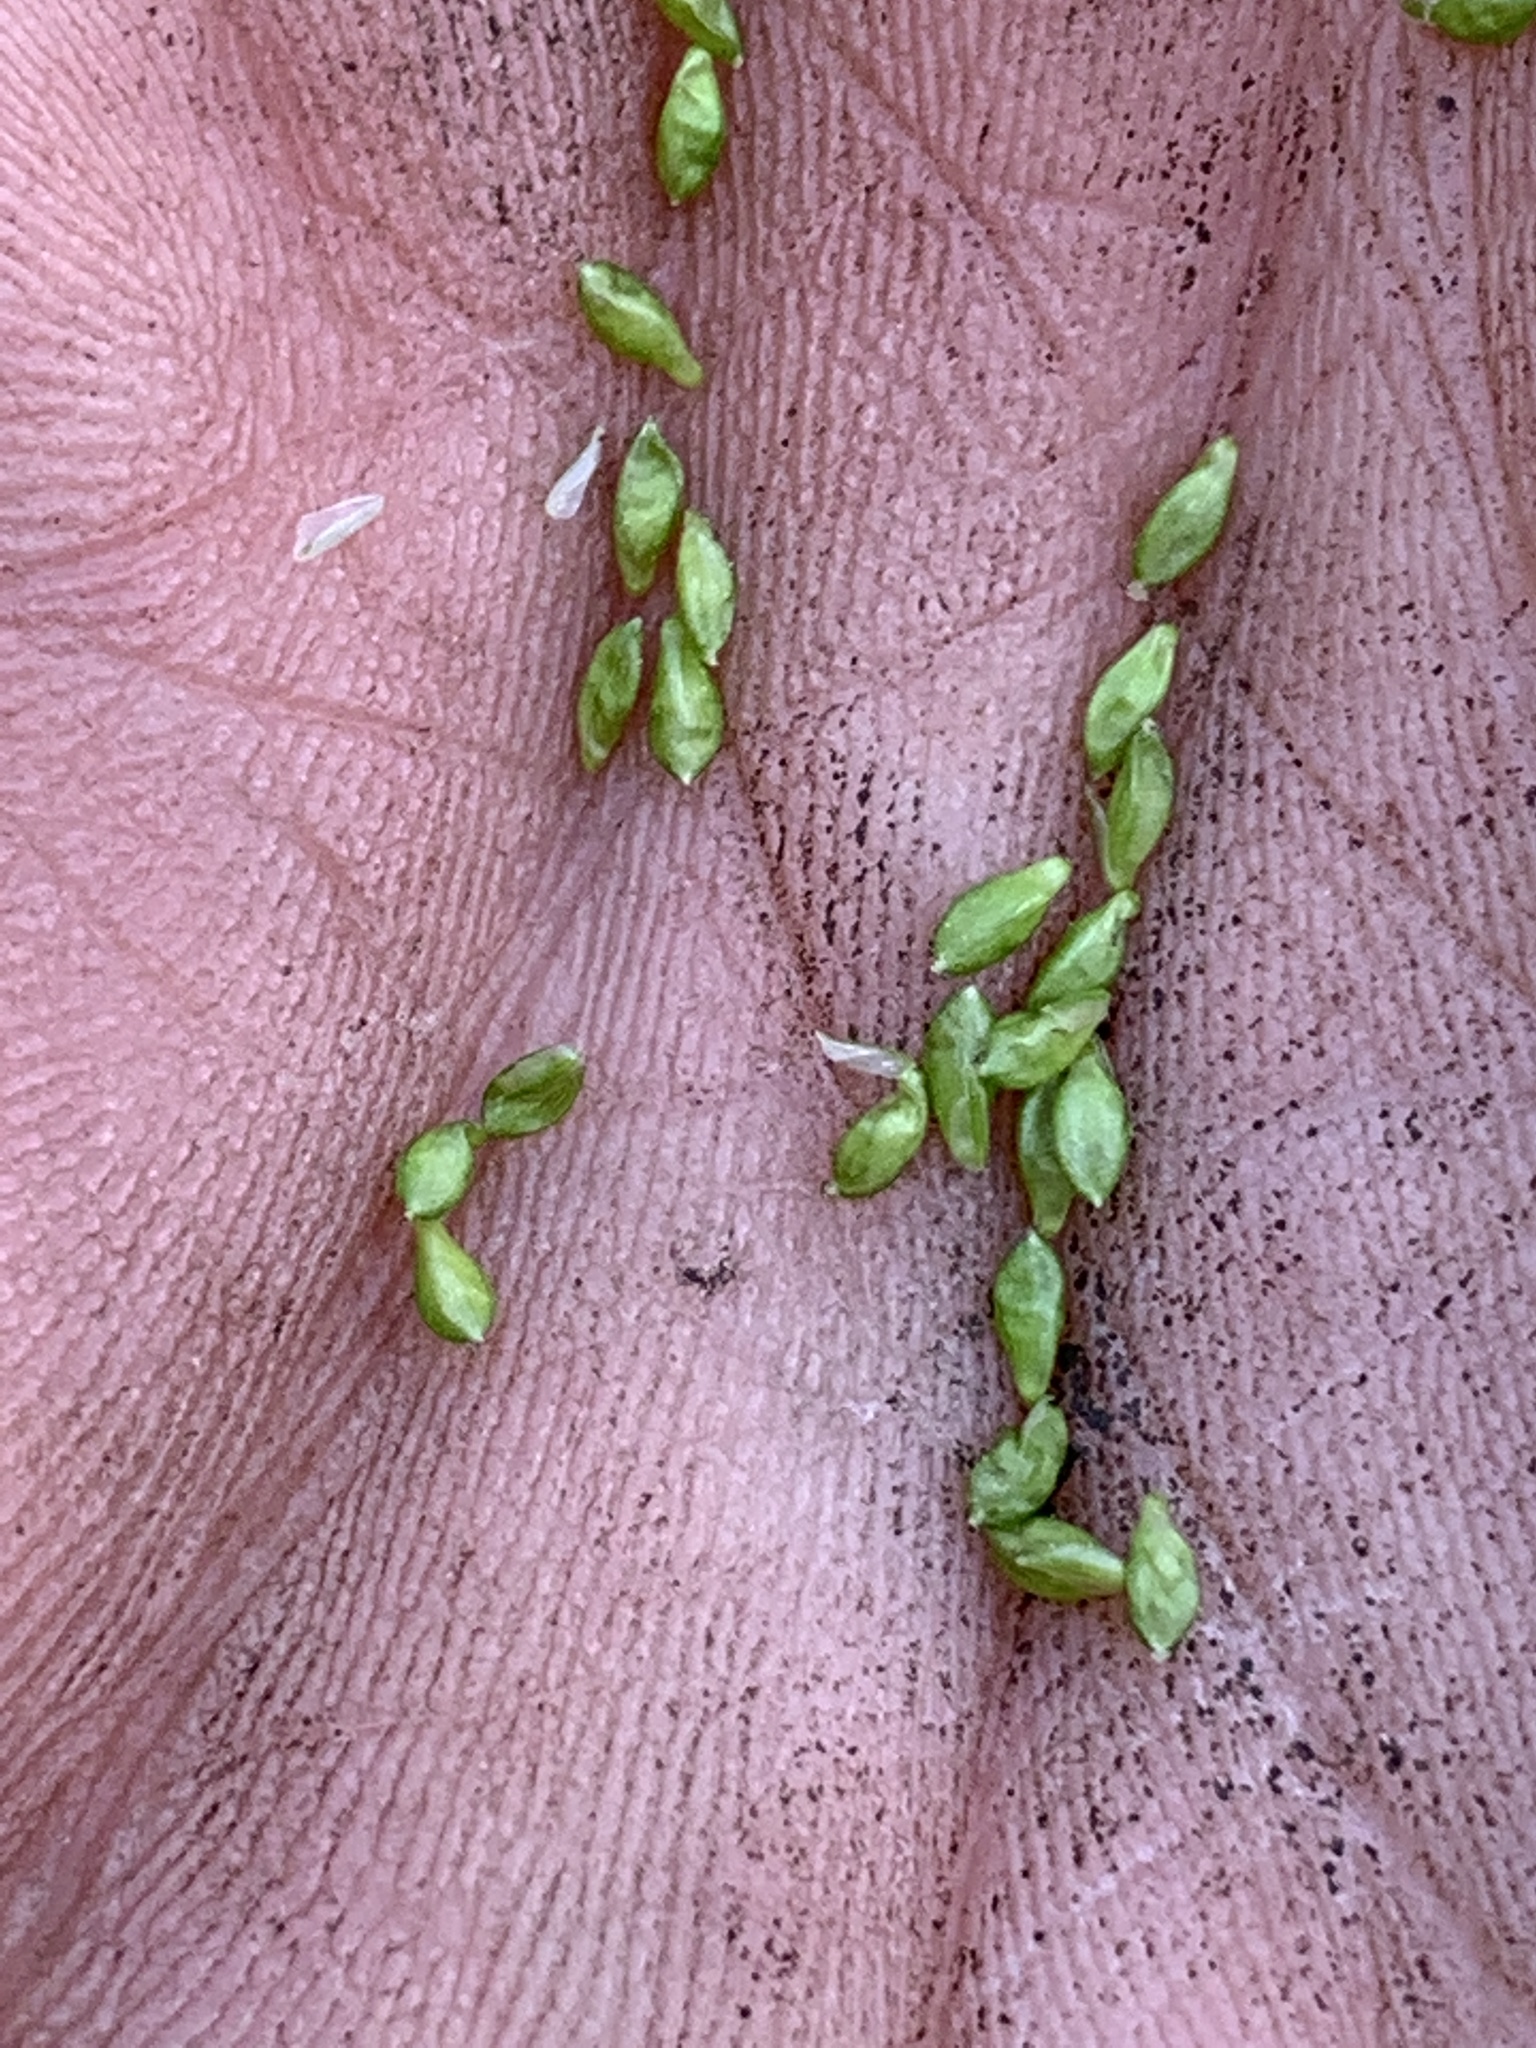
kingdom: Plantae
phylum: Tracheophyta
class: Liliopsida
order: Poales
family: Cyperaceae
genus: Carex
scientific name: Carex gracillima
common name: Graceful sedge
